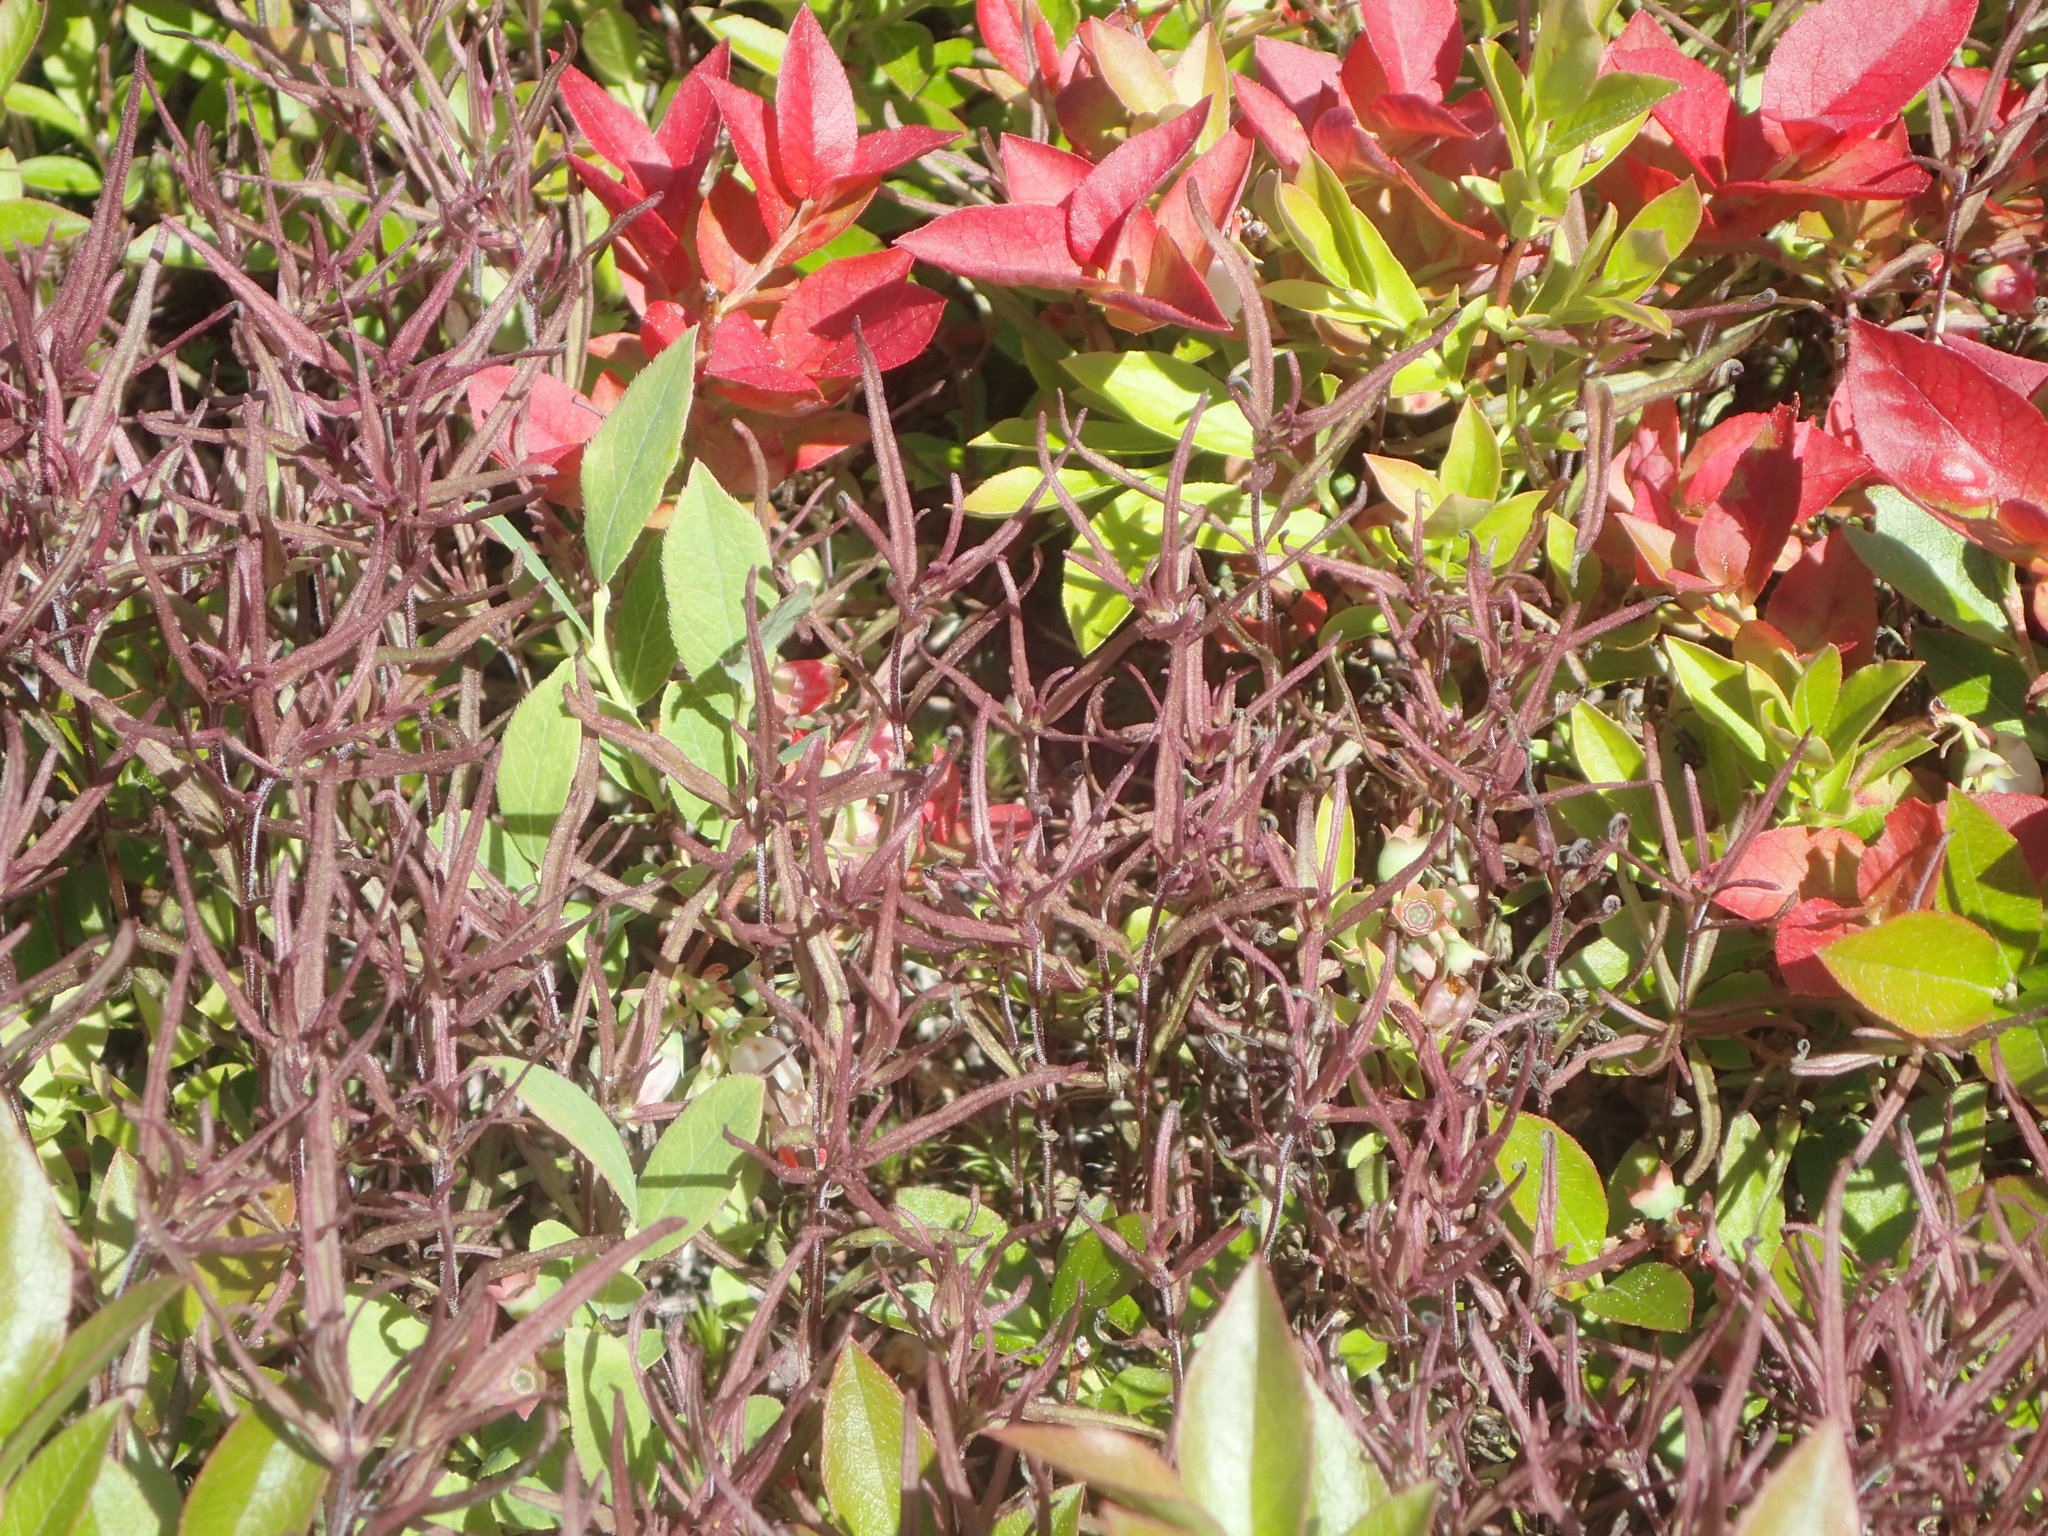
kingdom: Plantae
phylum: Tracheophyta
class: Magnoliopsida
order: Lamiales
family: Orobanchaceae
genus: Melampyrum
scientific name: Melampyrum lineare
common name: American cow-wheat
